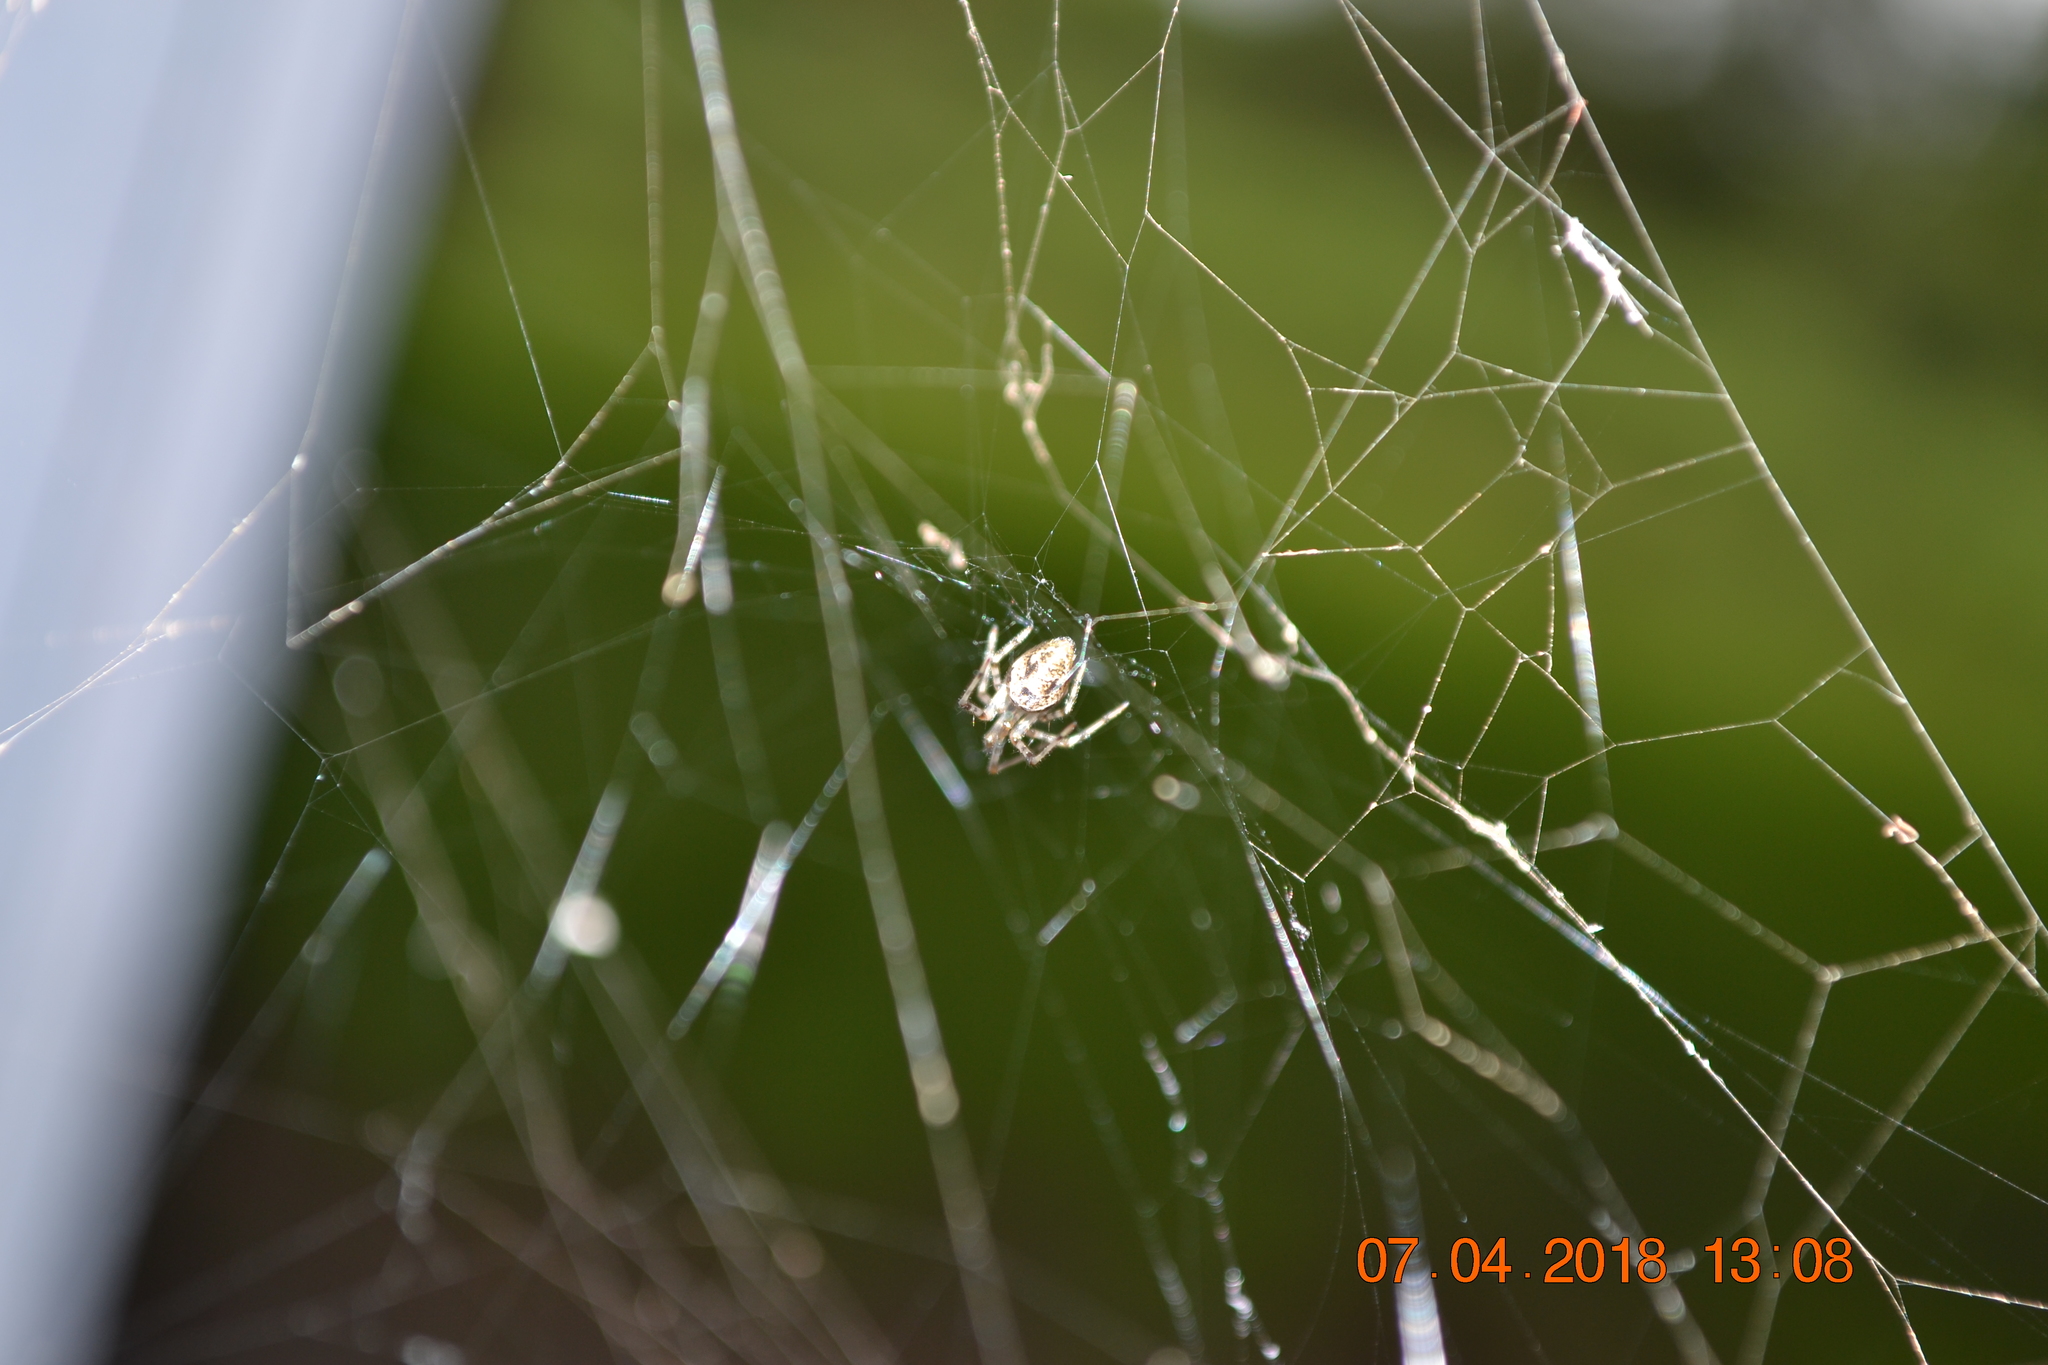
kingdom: Animalia
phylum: Arthropoda
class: Arachnida
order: Araneae
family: Theridiidae
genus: Parasteatoda
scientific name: Parasteatoda tepidariorum
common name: Common house spider
